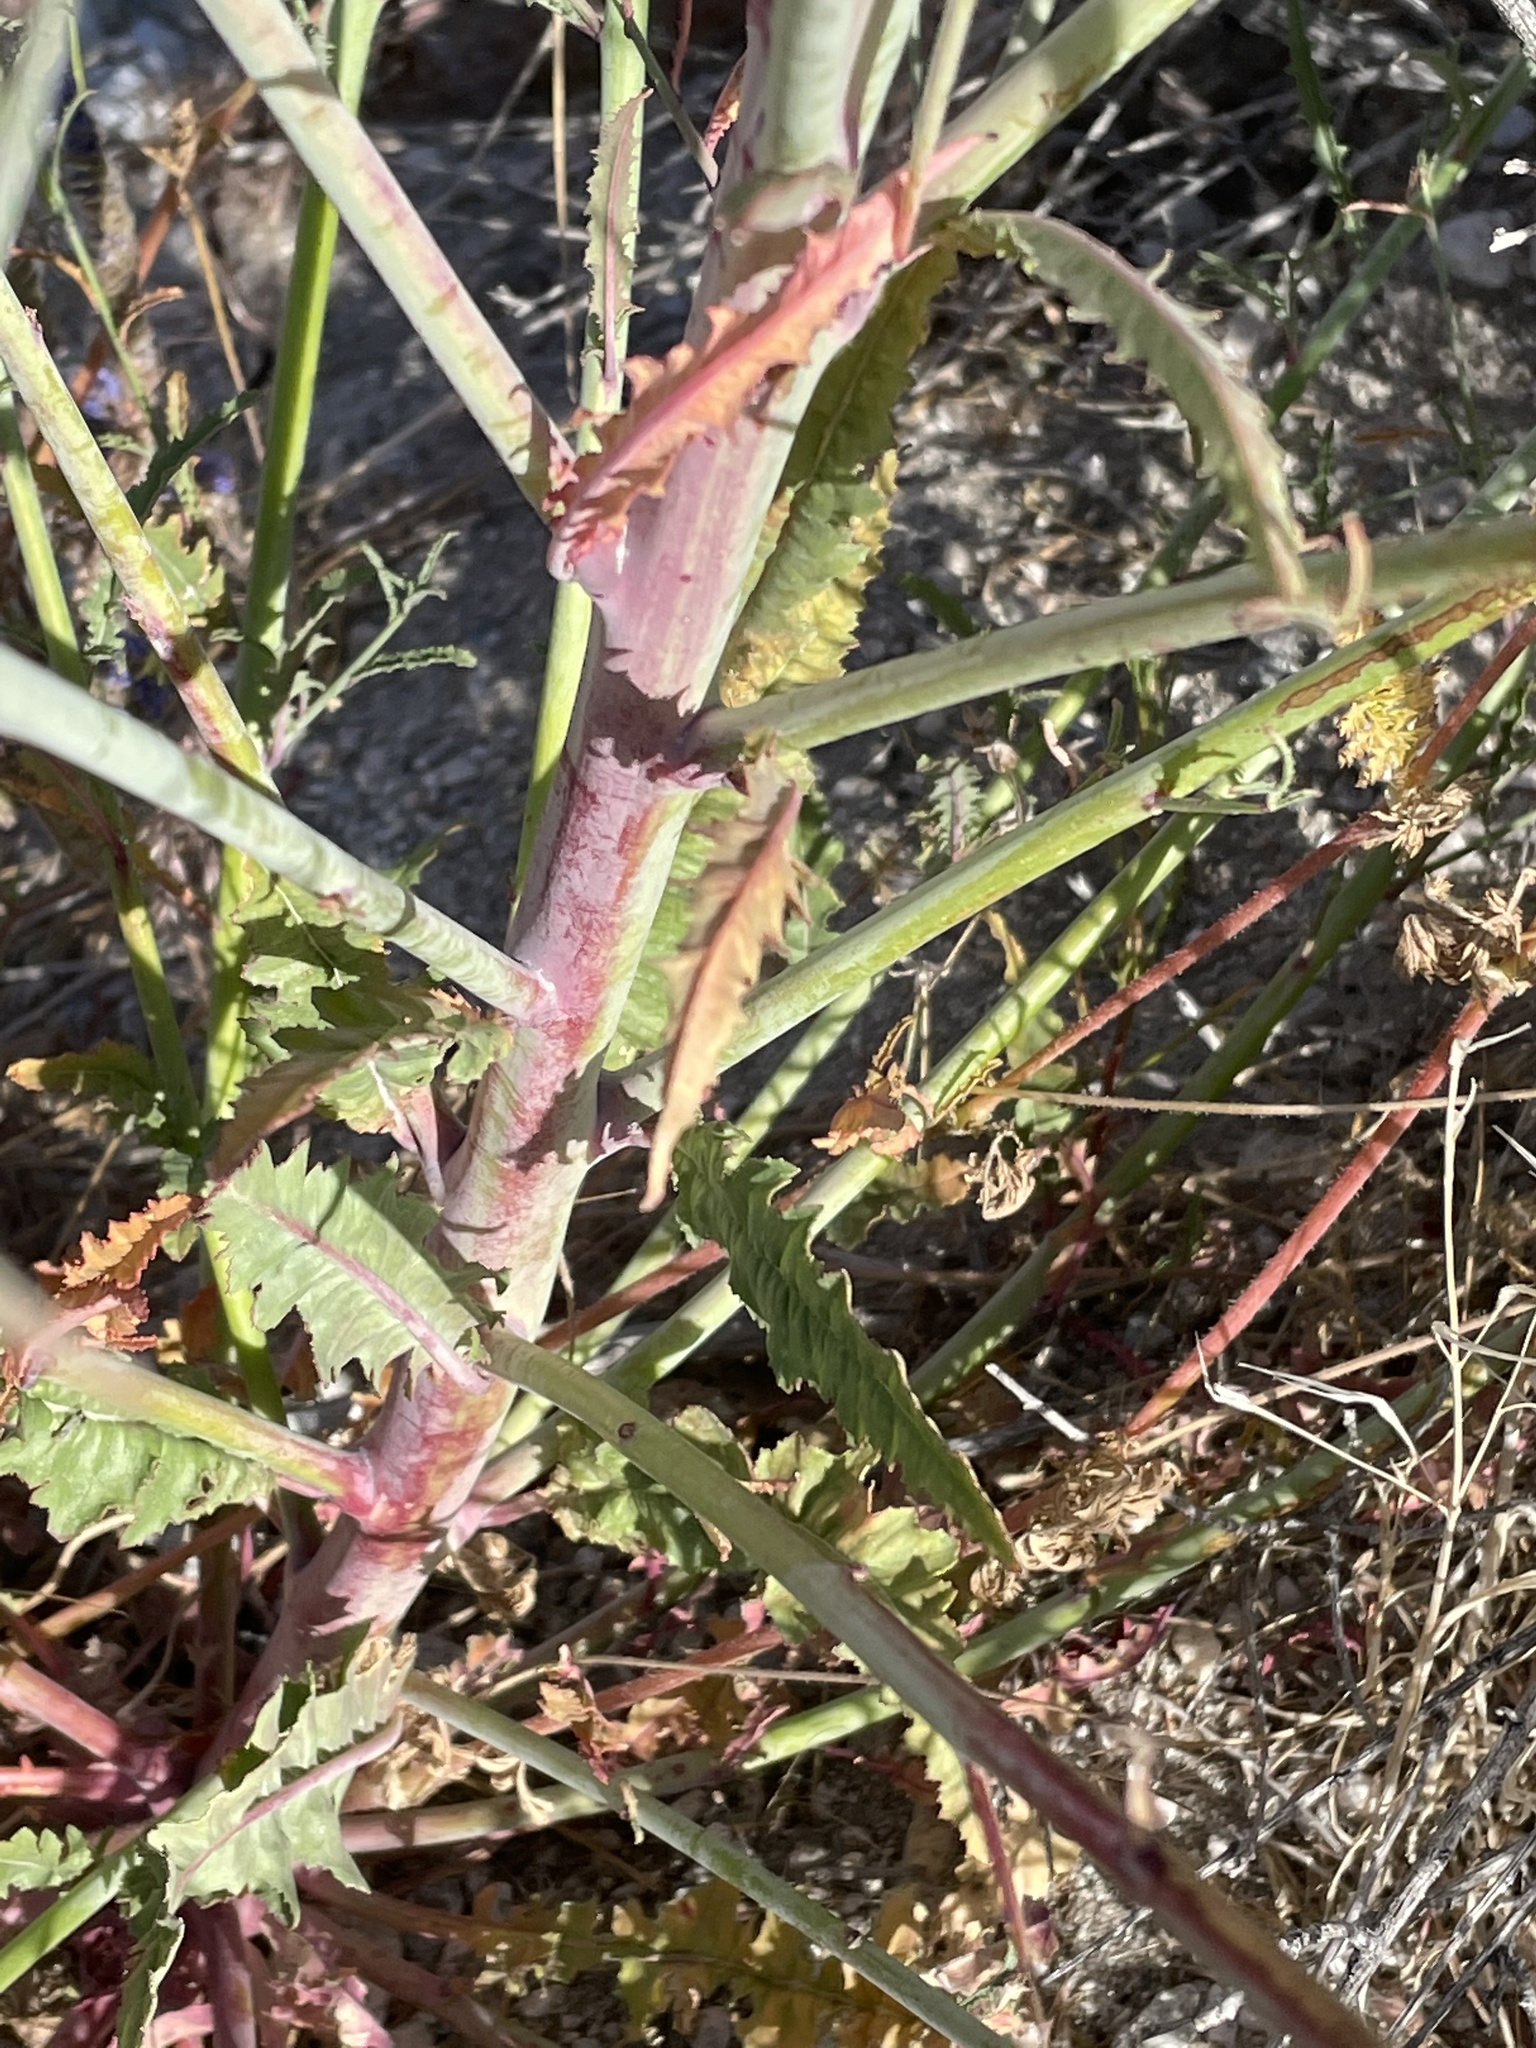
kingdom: Plantae
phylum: Tracheophyta
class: Magnoliopsida
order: Myrtales
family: Onagraceae
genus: Eulobus
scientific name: Eulobus californicus
